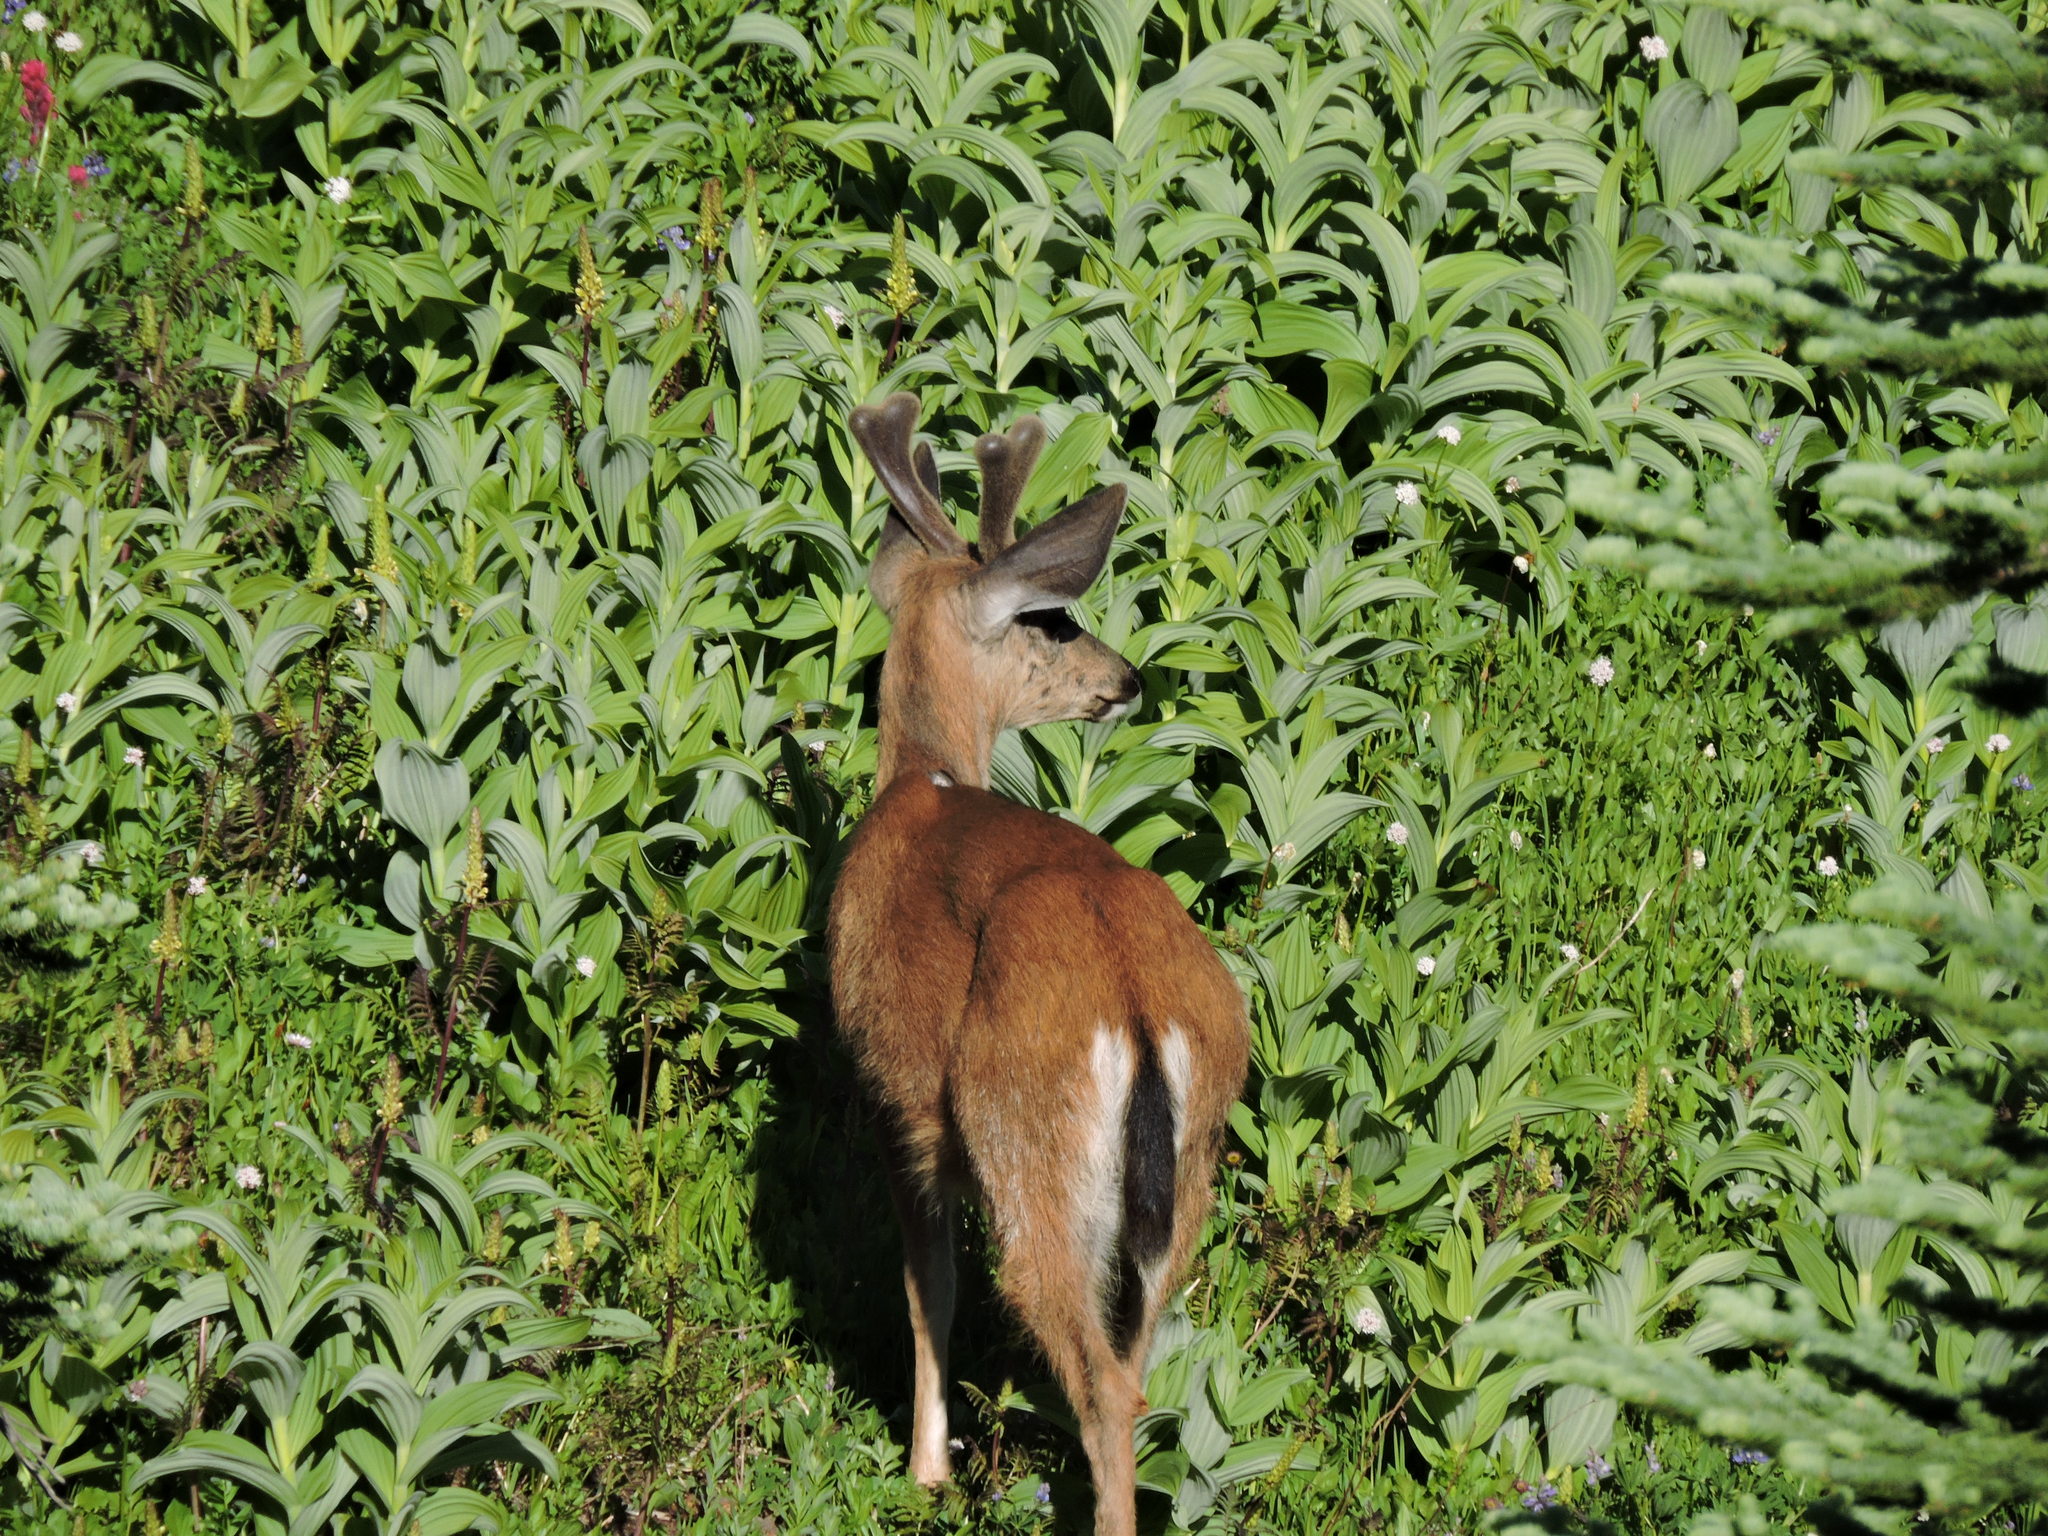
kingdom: Animalia
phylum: Chordata
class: Mammalia
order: Artiodactyla
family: Cervidae
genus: Odocoileus
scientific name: Odocoileus hemionus
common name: Mule deer
